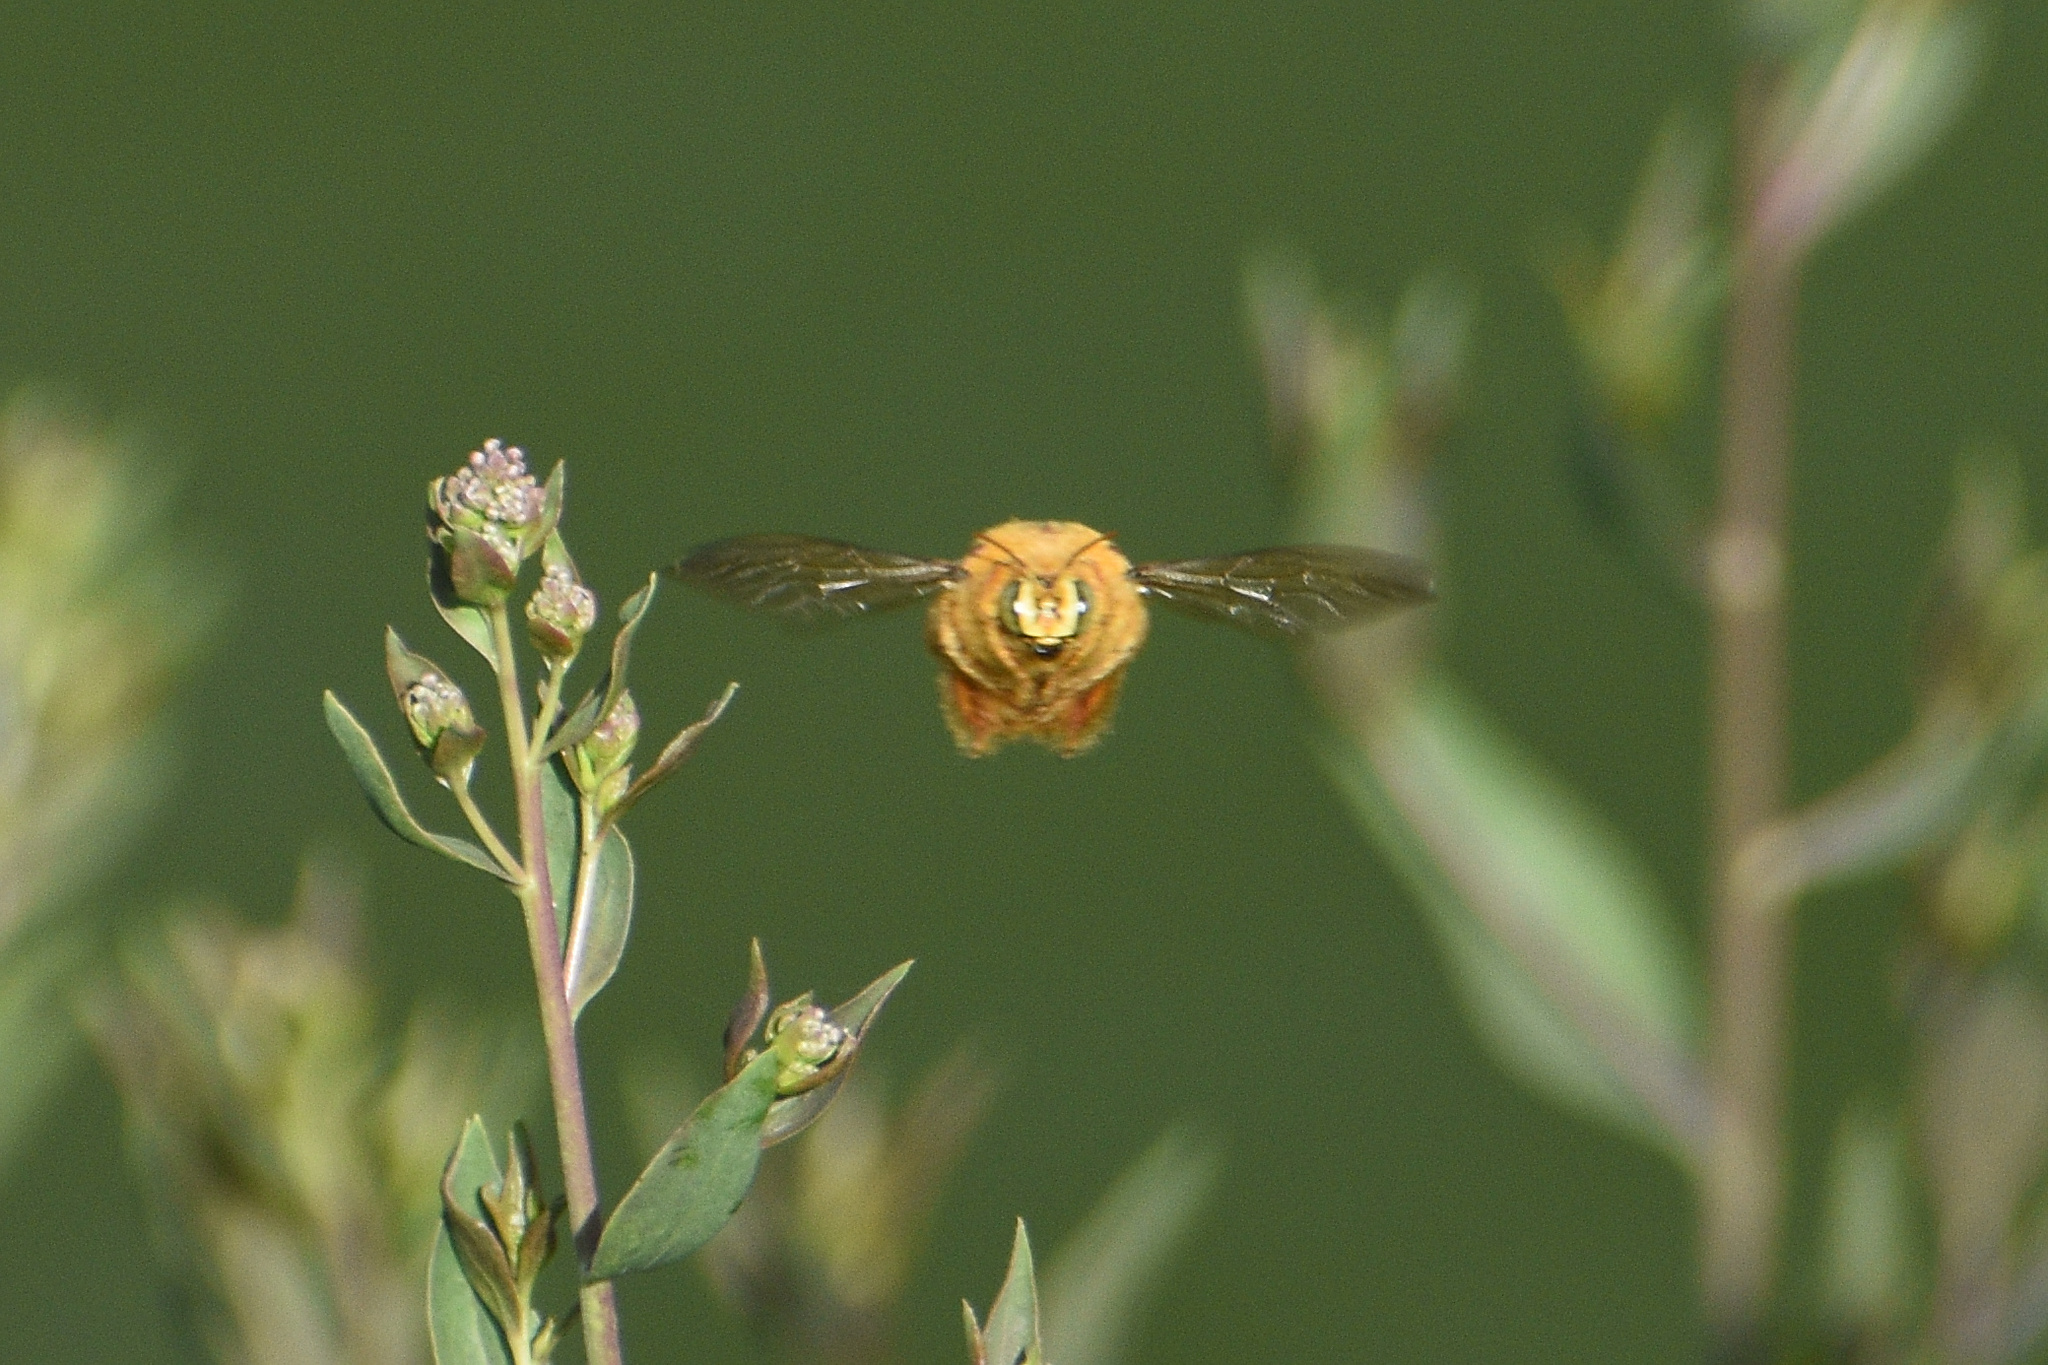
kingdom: Animalia
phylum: Arthropoda
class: Insecta
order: Hymenoptera
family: Apidae
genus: Xylocopa
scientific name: Xylocopa sonorina
